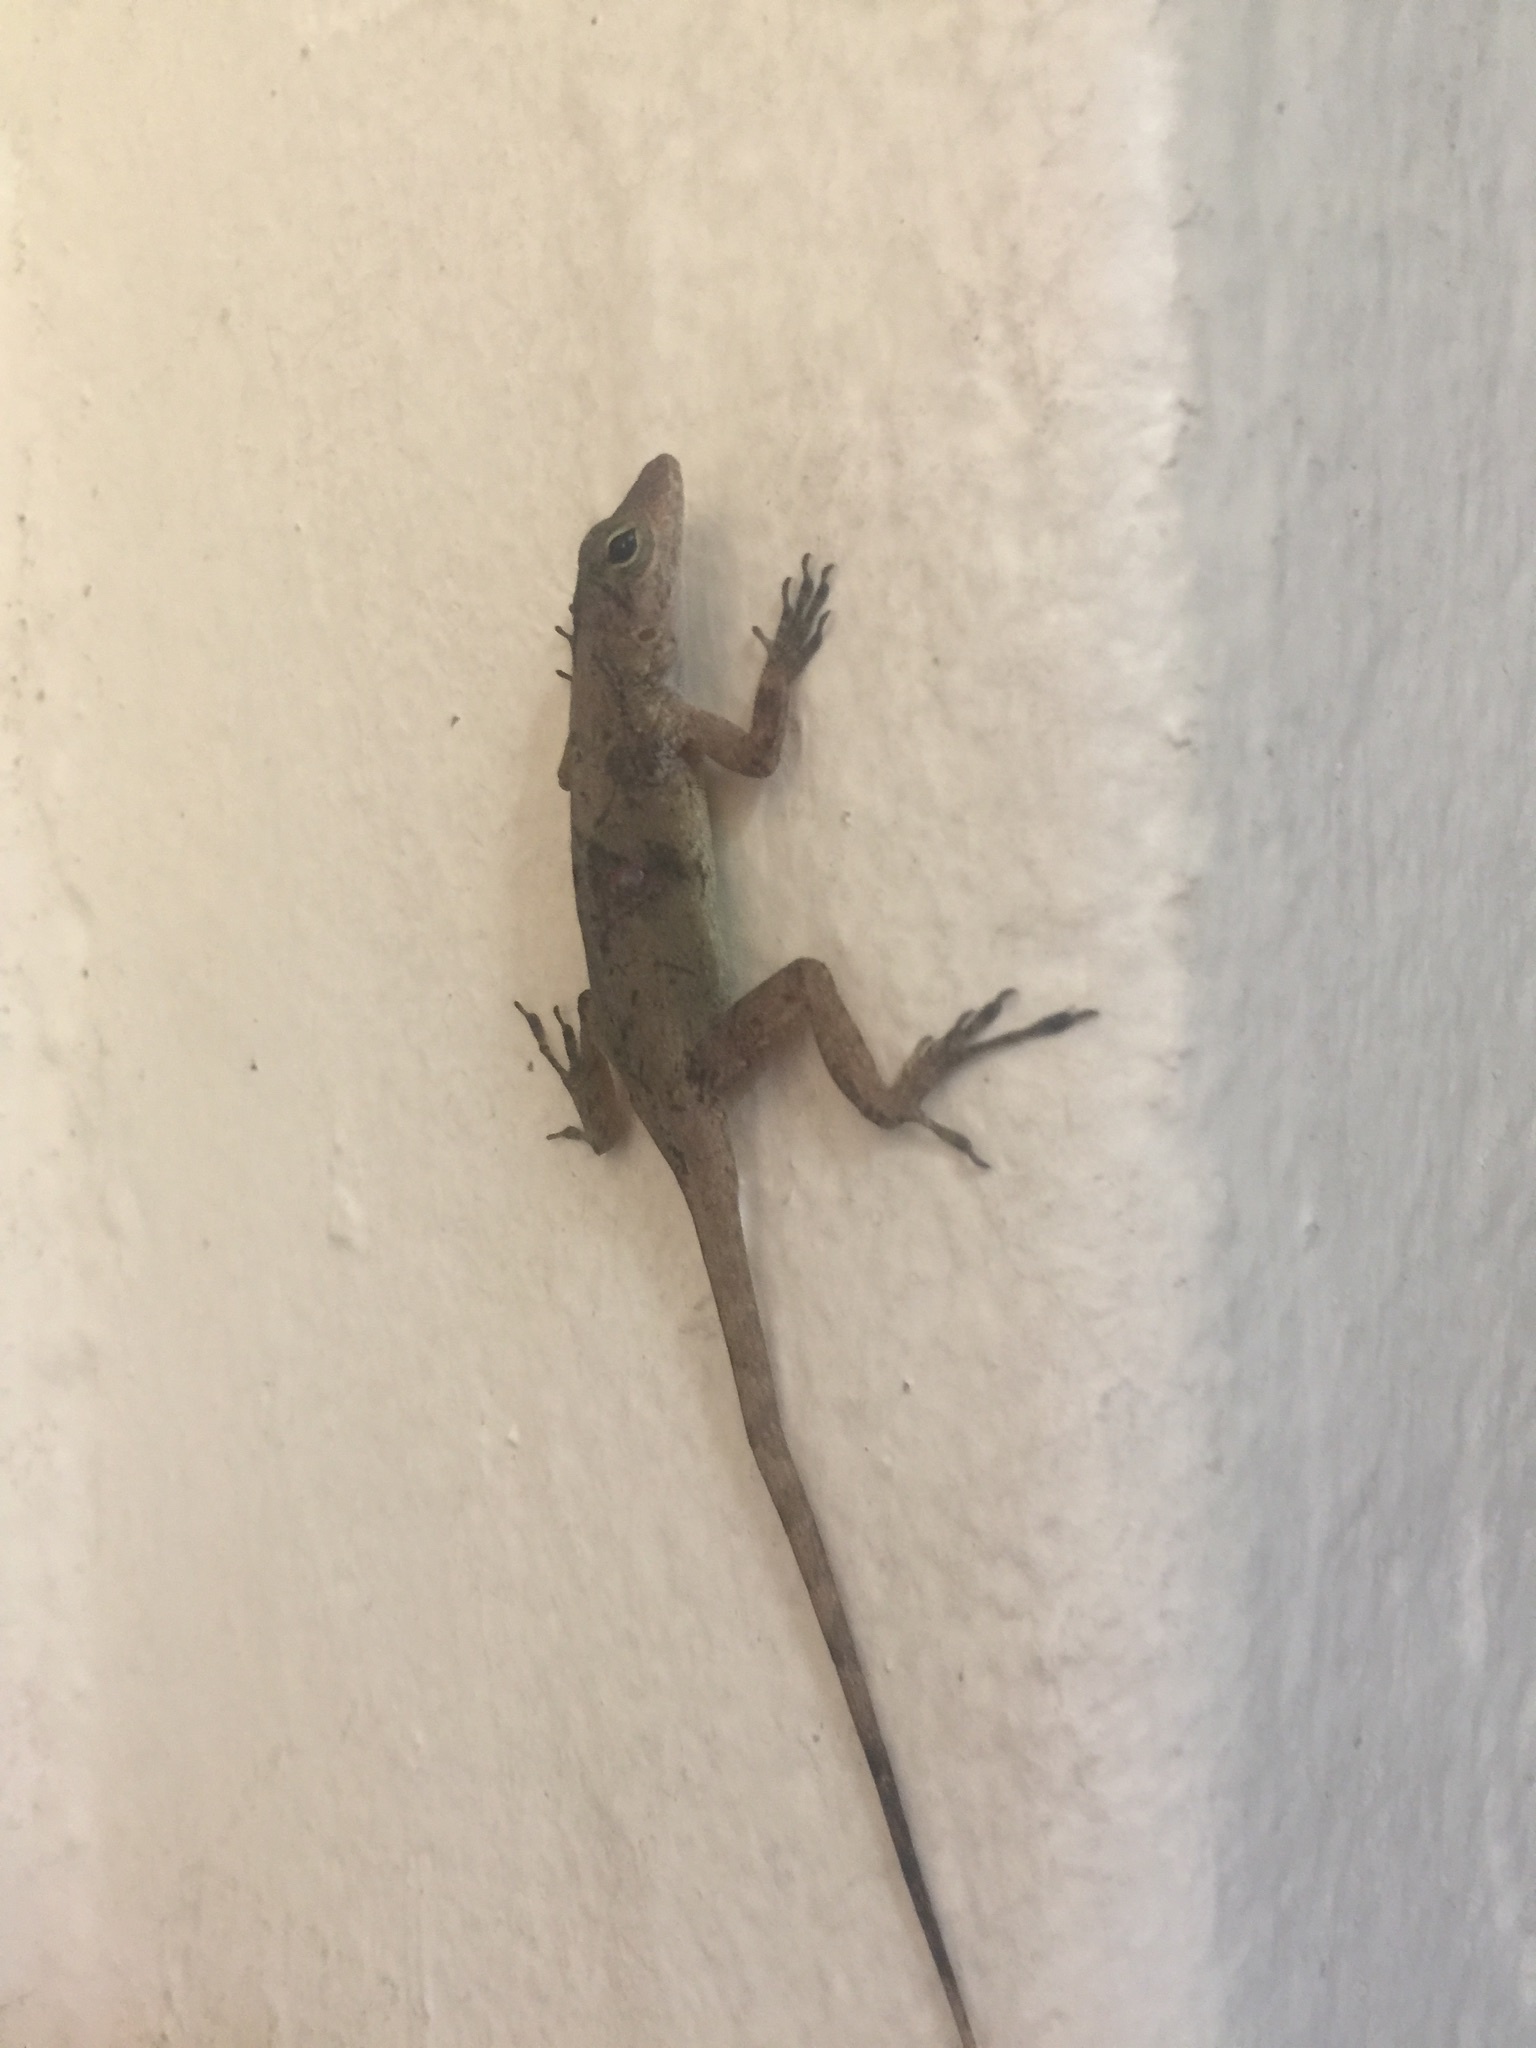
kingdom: Animalia
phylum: Chordata
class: Squamata
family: Dactyloidae
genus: Anolis
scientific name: Anolis cristatellus
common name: Crested anole
